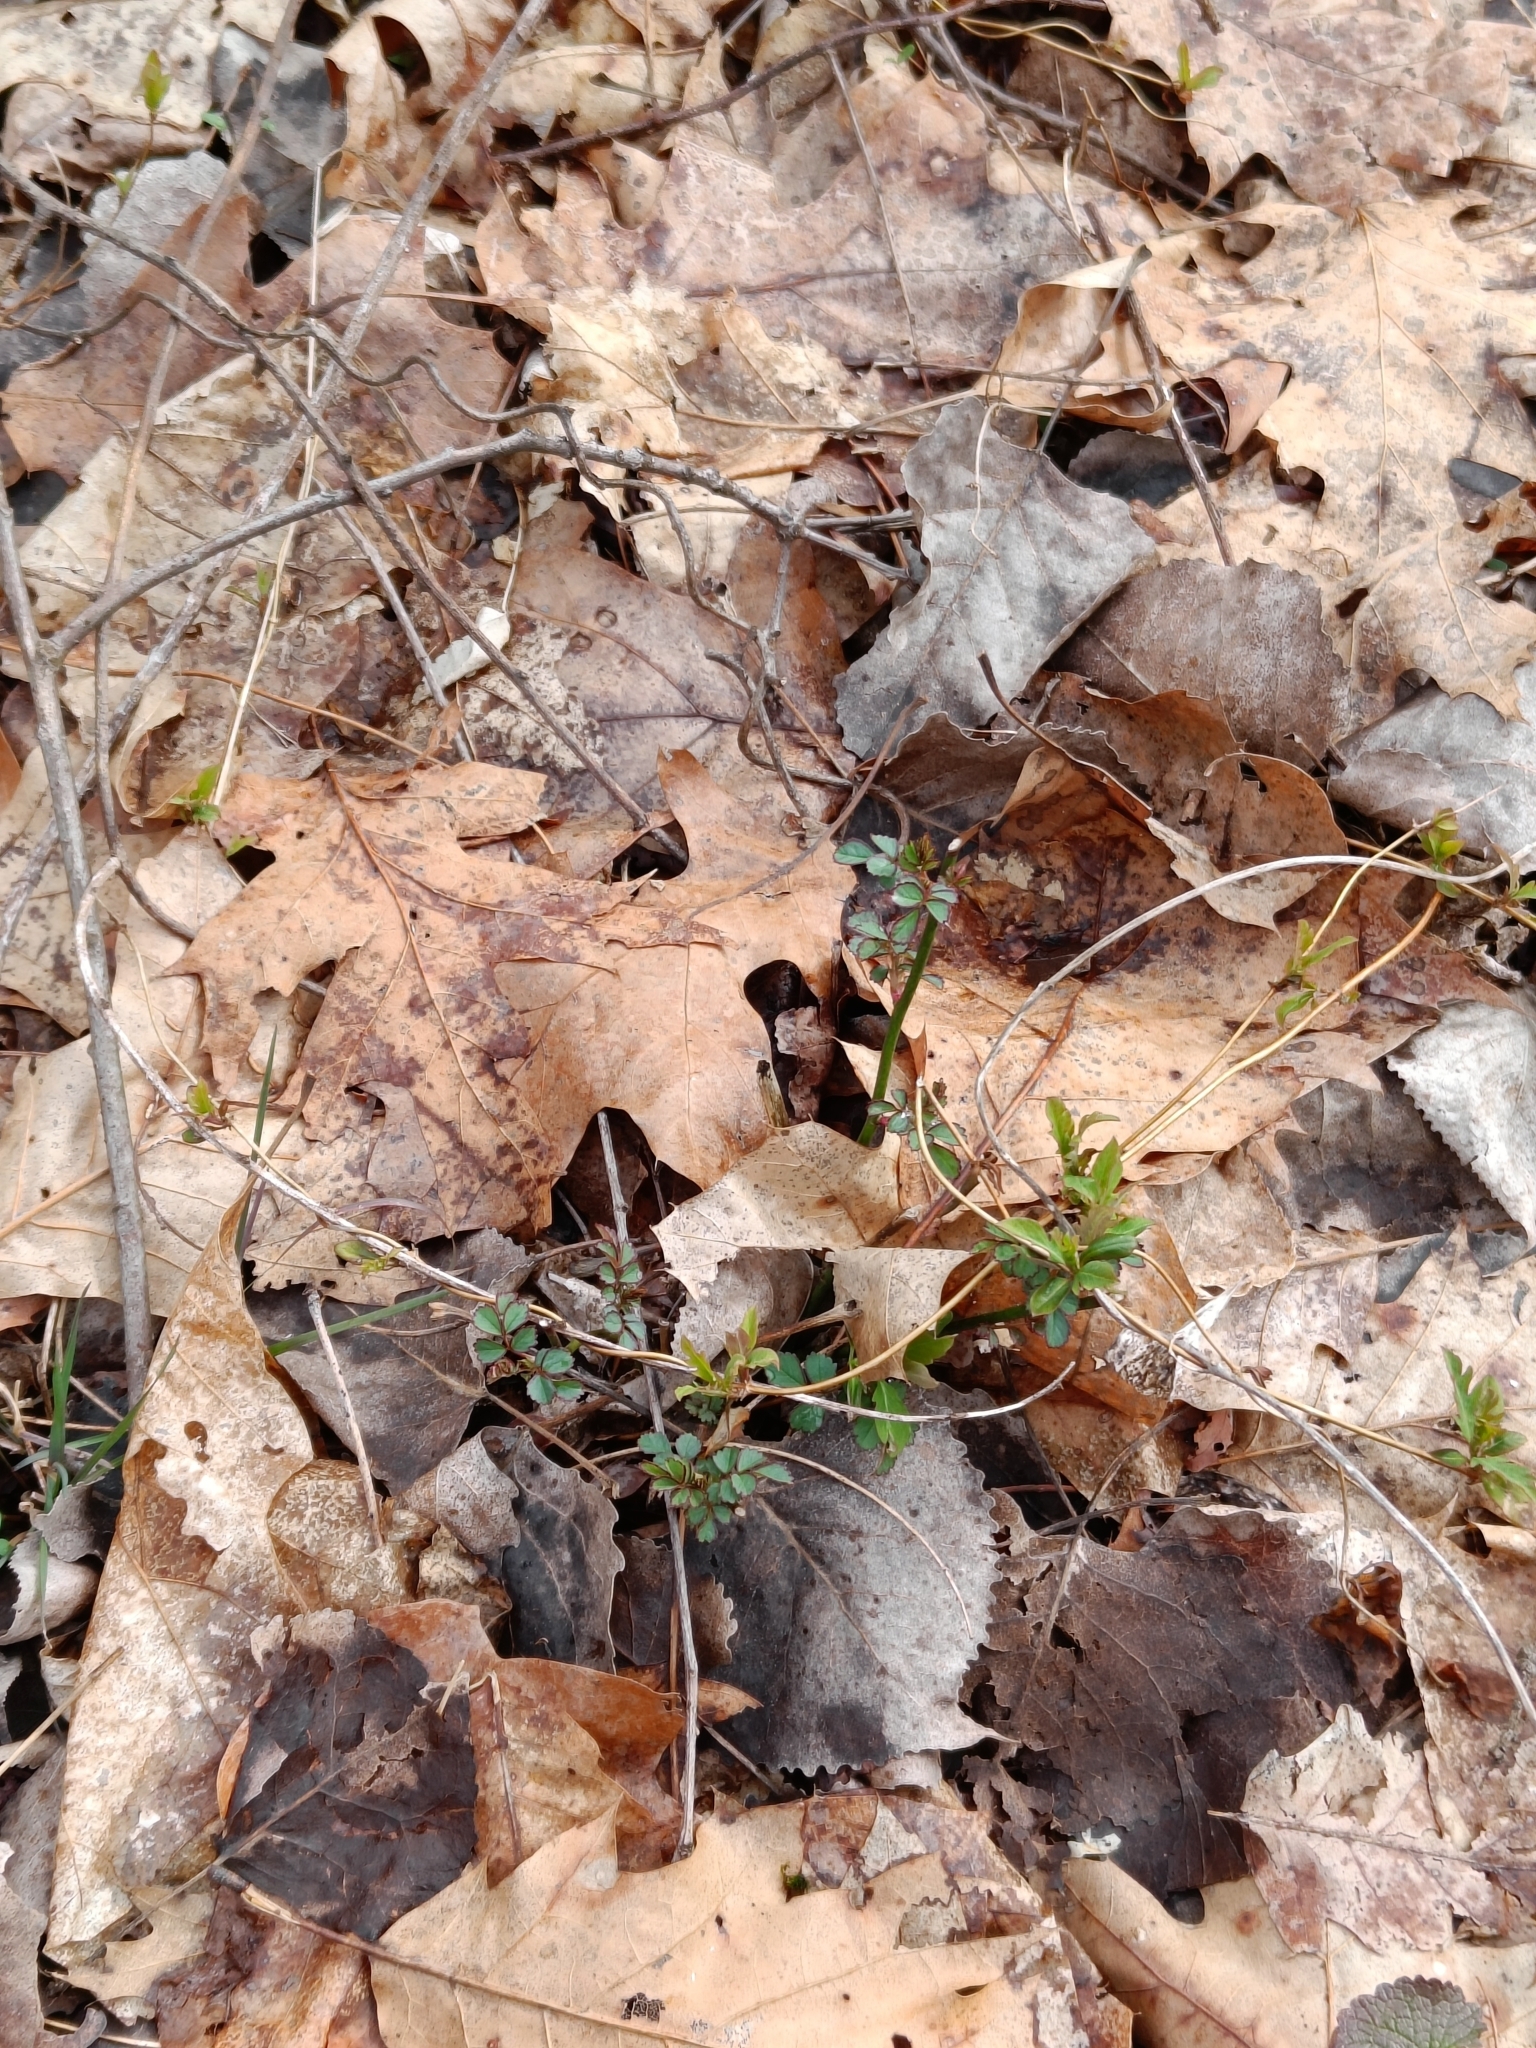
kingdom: Plantae
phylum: Tracheophyta
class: Magnoliopsida
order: Rosales
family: Rosaceae
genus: Rosa
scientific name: Rosa multiflora
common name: Multiflora rose
